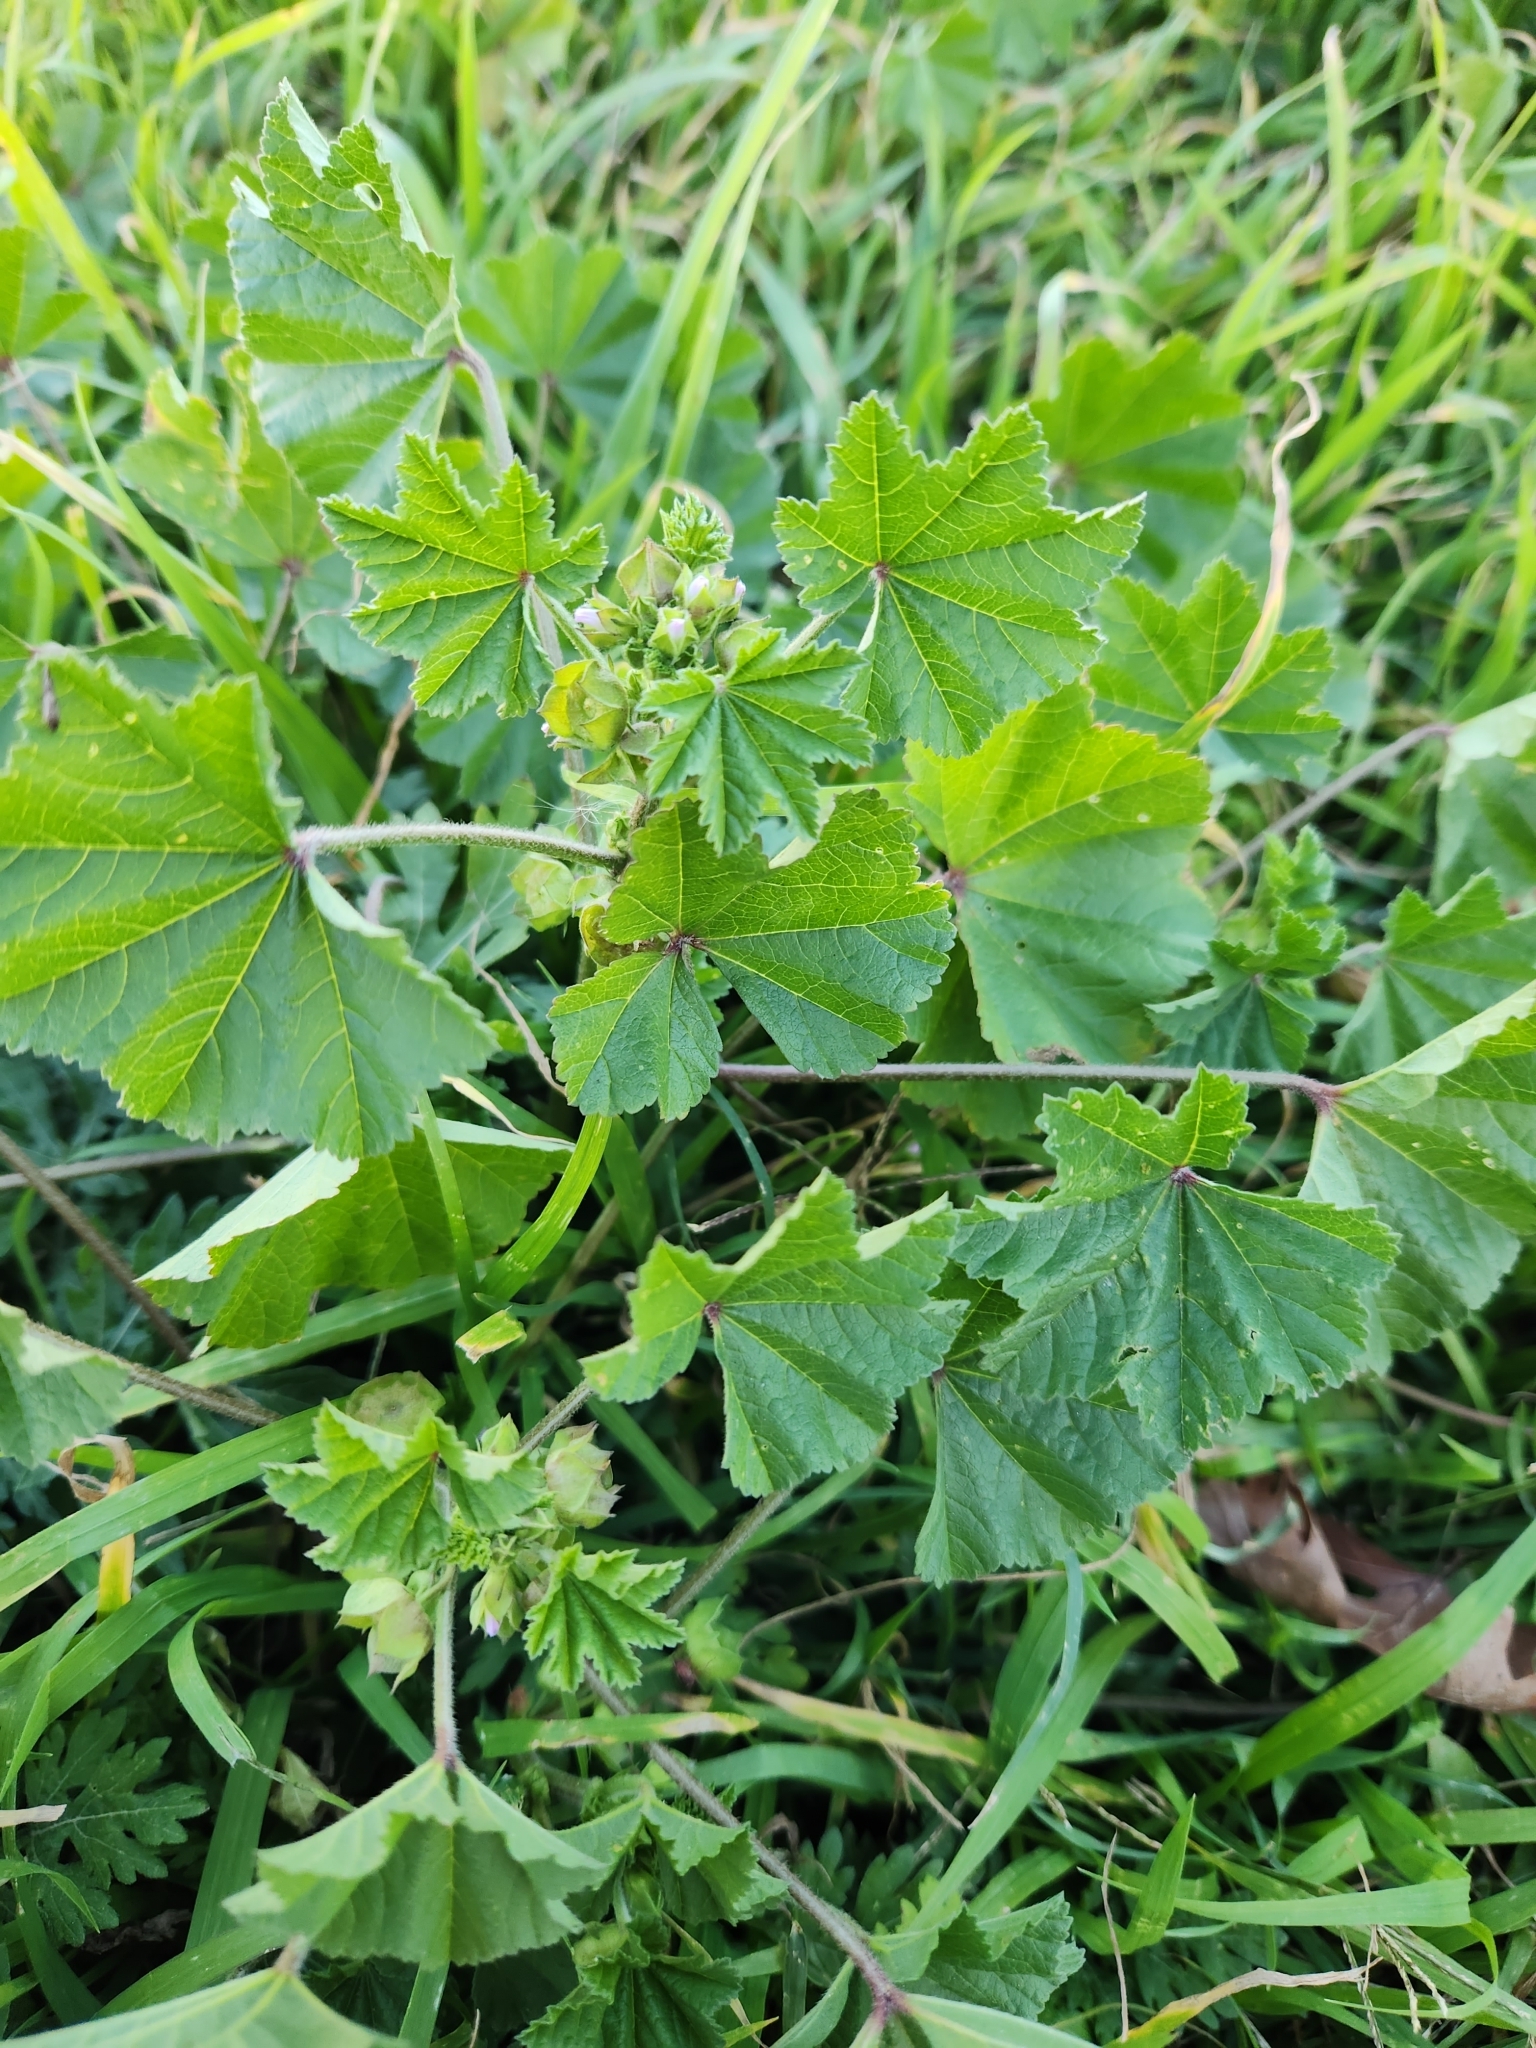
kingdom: Plantae
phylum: Tracheophyta
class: Magnoliopsida
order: Malvales
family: Malvaceae
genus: Malva
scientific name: Malva parviflora
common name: Least mallow
